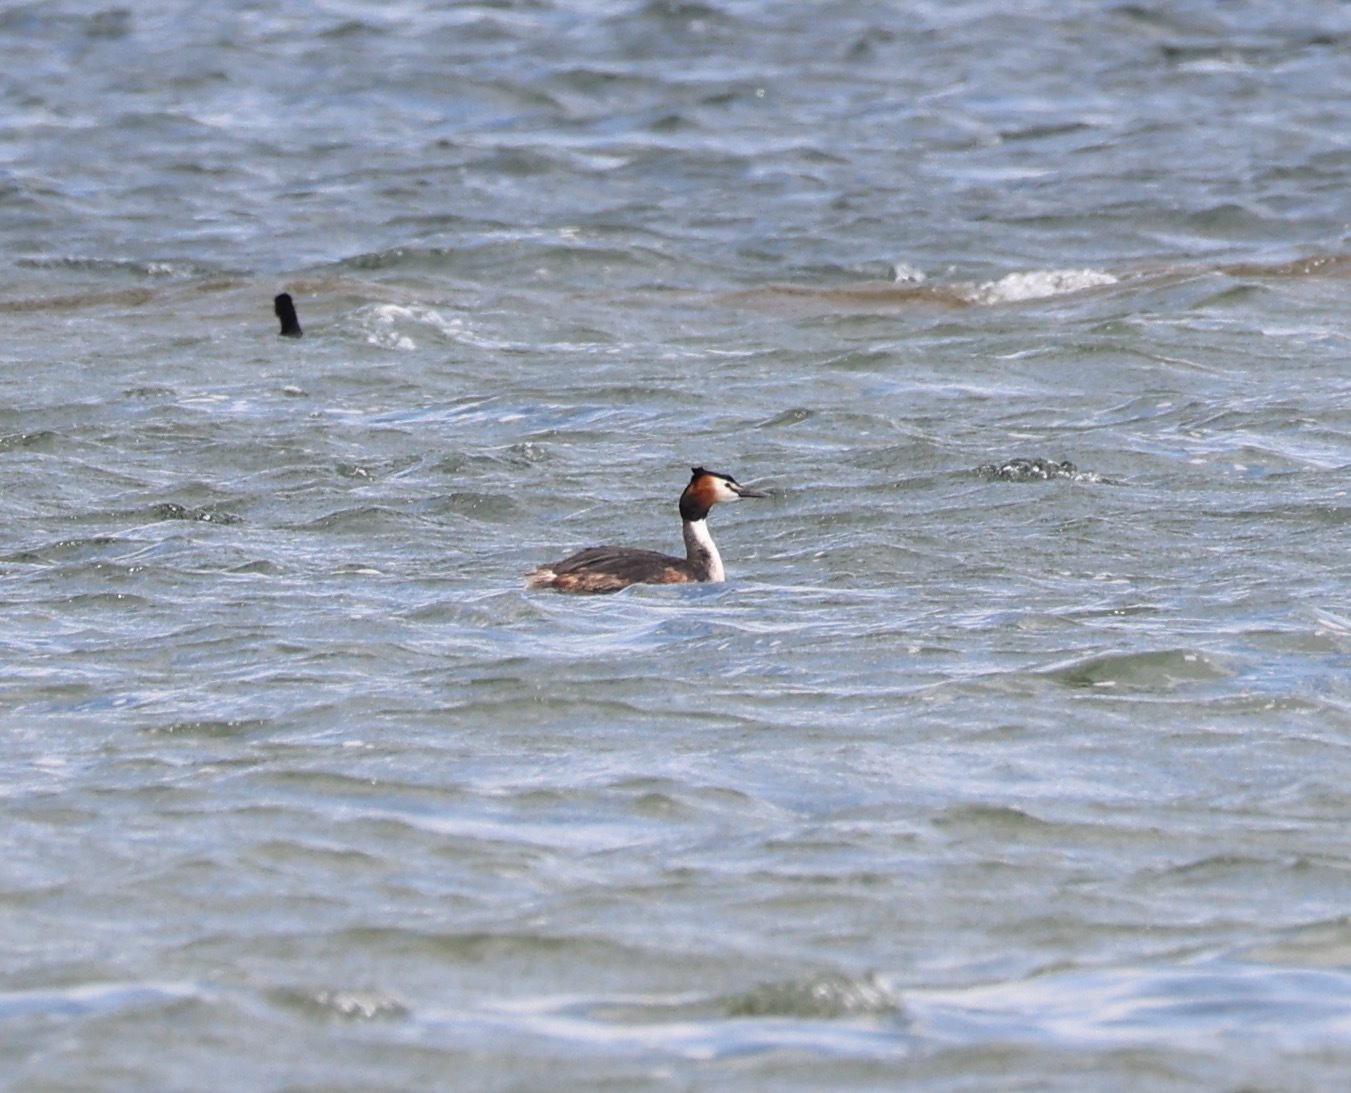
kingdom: Animalia
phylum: Chordata
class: Aves
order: Podicipediformes
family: Podicipedidae
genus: Podiceps
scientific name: Podiceps cristatus
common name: Great crested grebe
